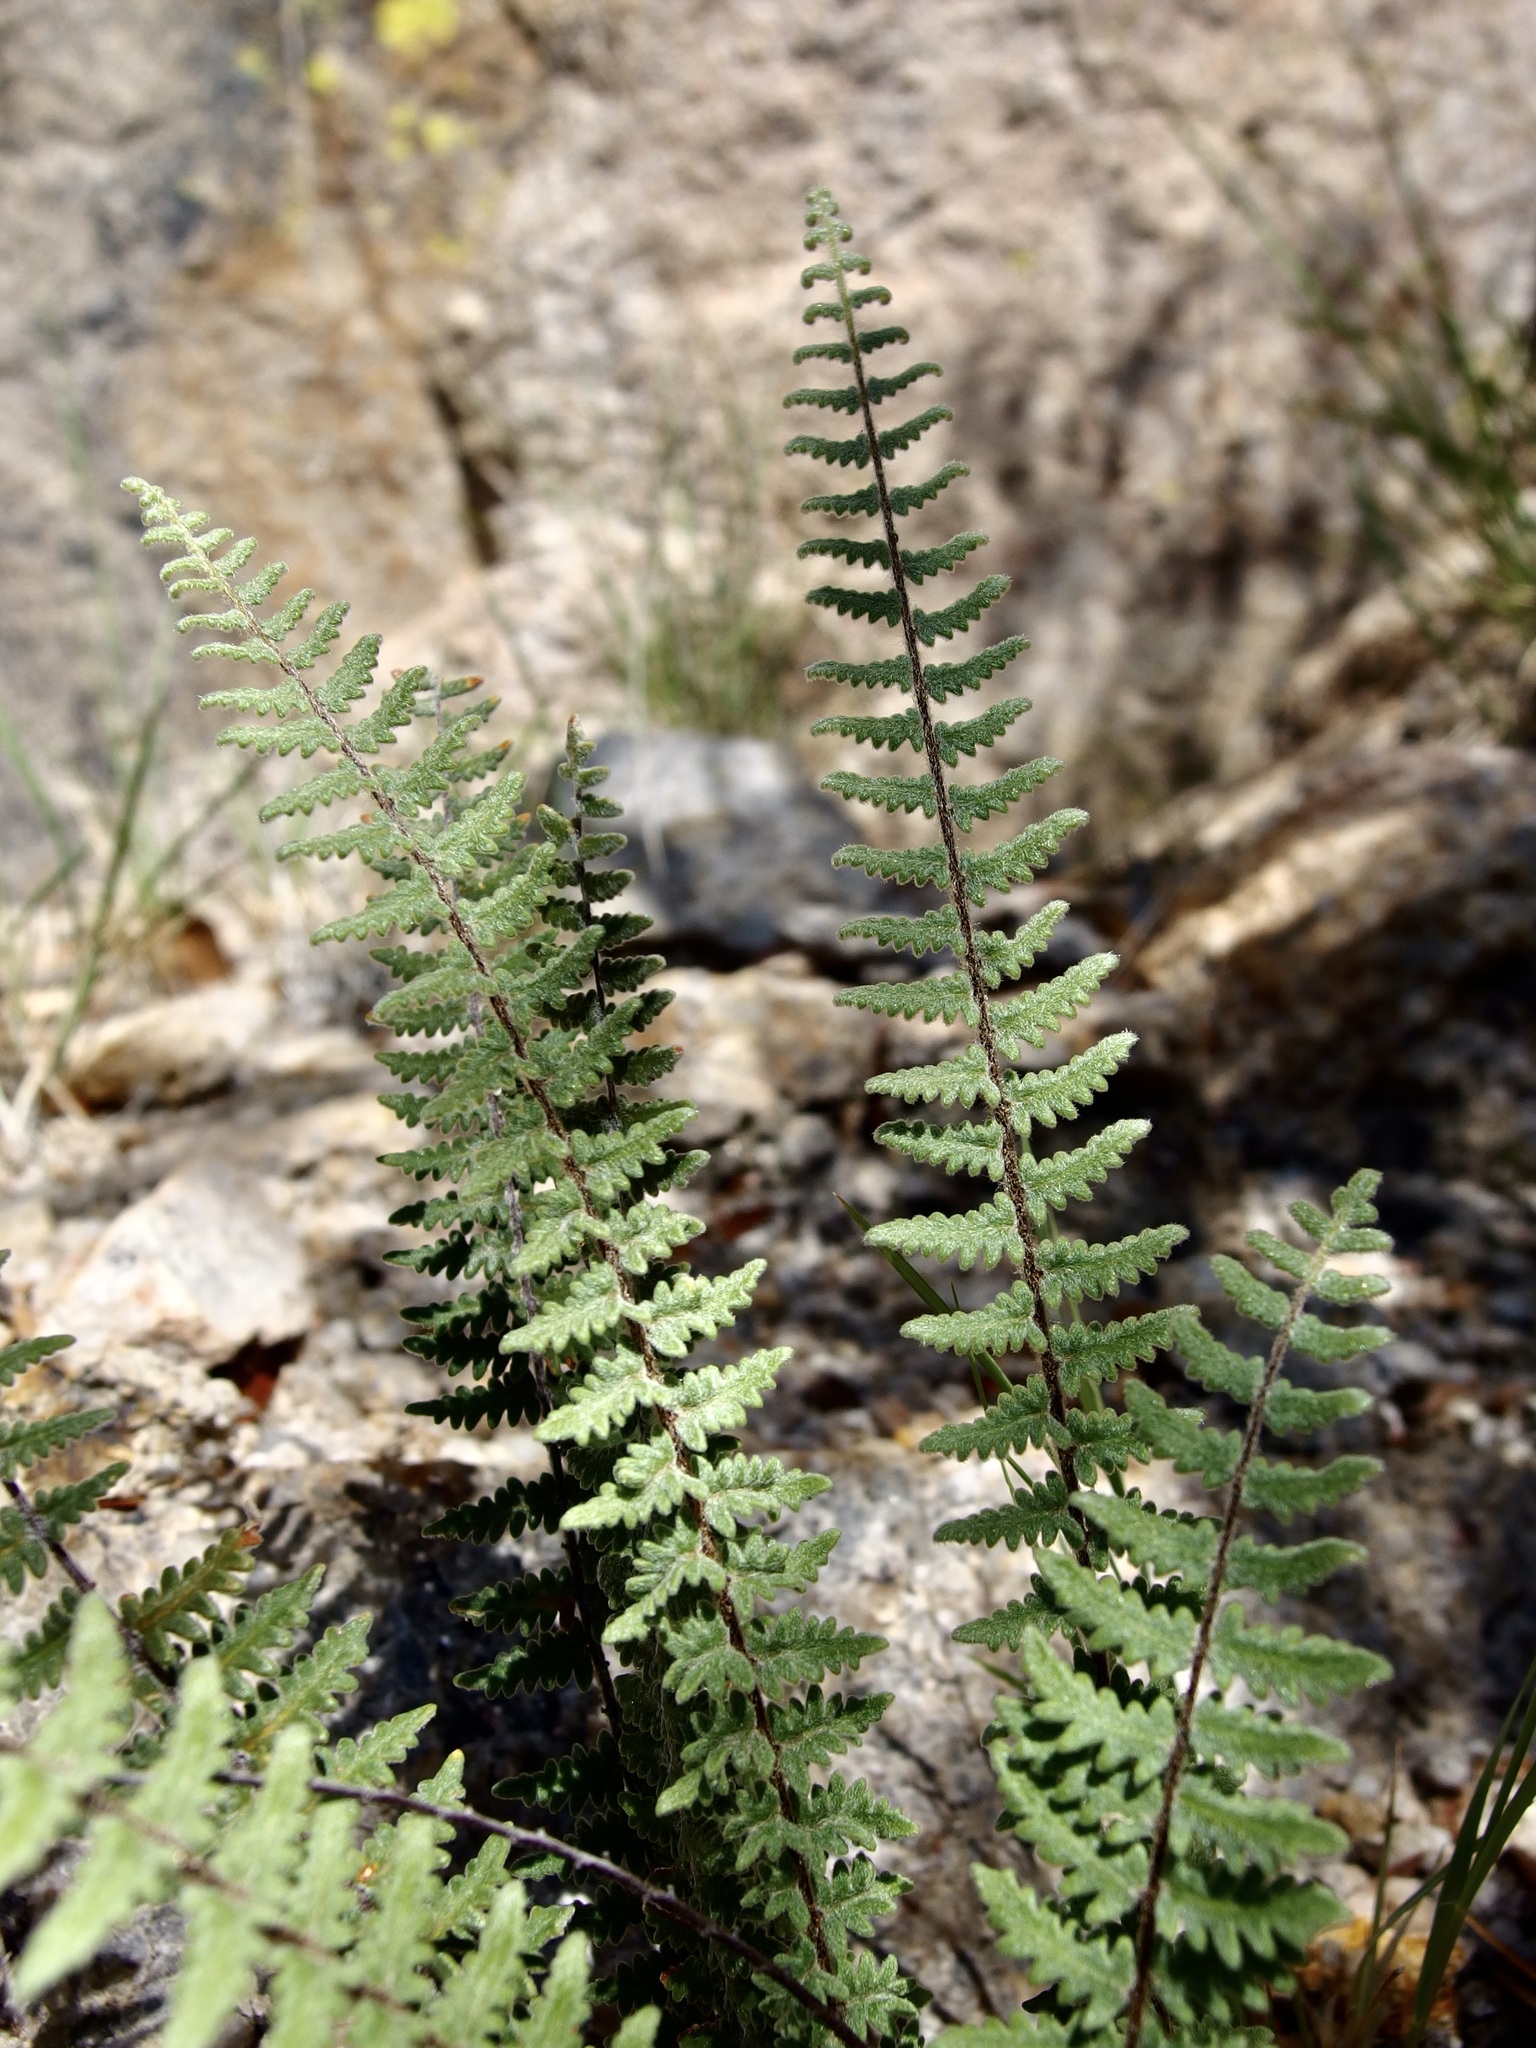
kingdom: Plantae
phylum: Tracheophyta
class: Polypodiopsida
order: Polypodiales
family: Pteridaceae
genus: Myriopteris
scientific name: Myriopteris aurea
